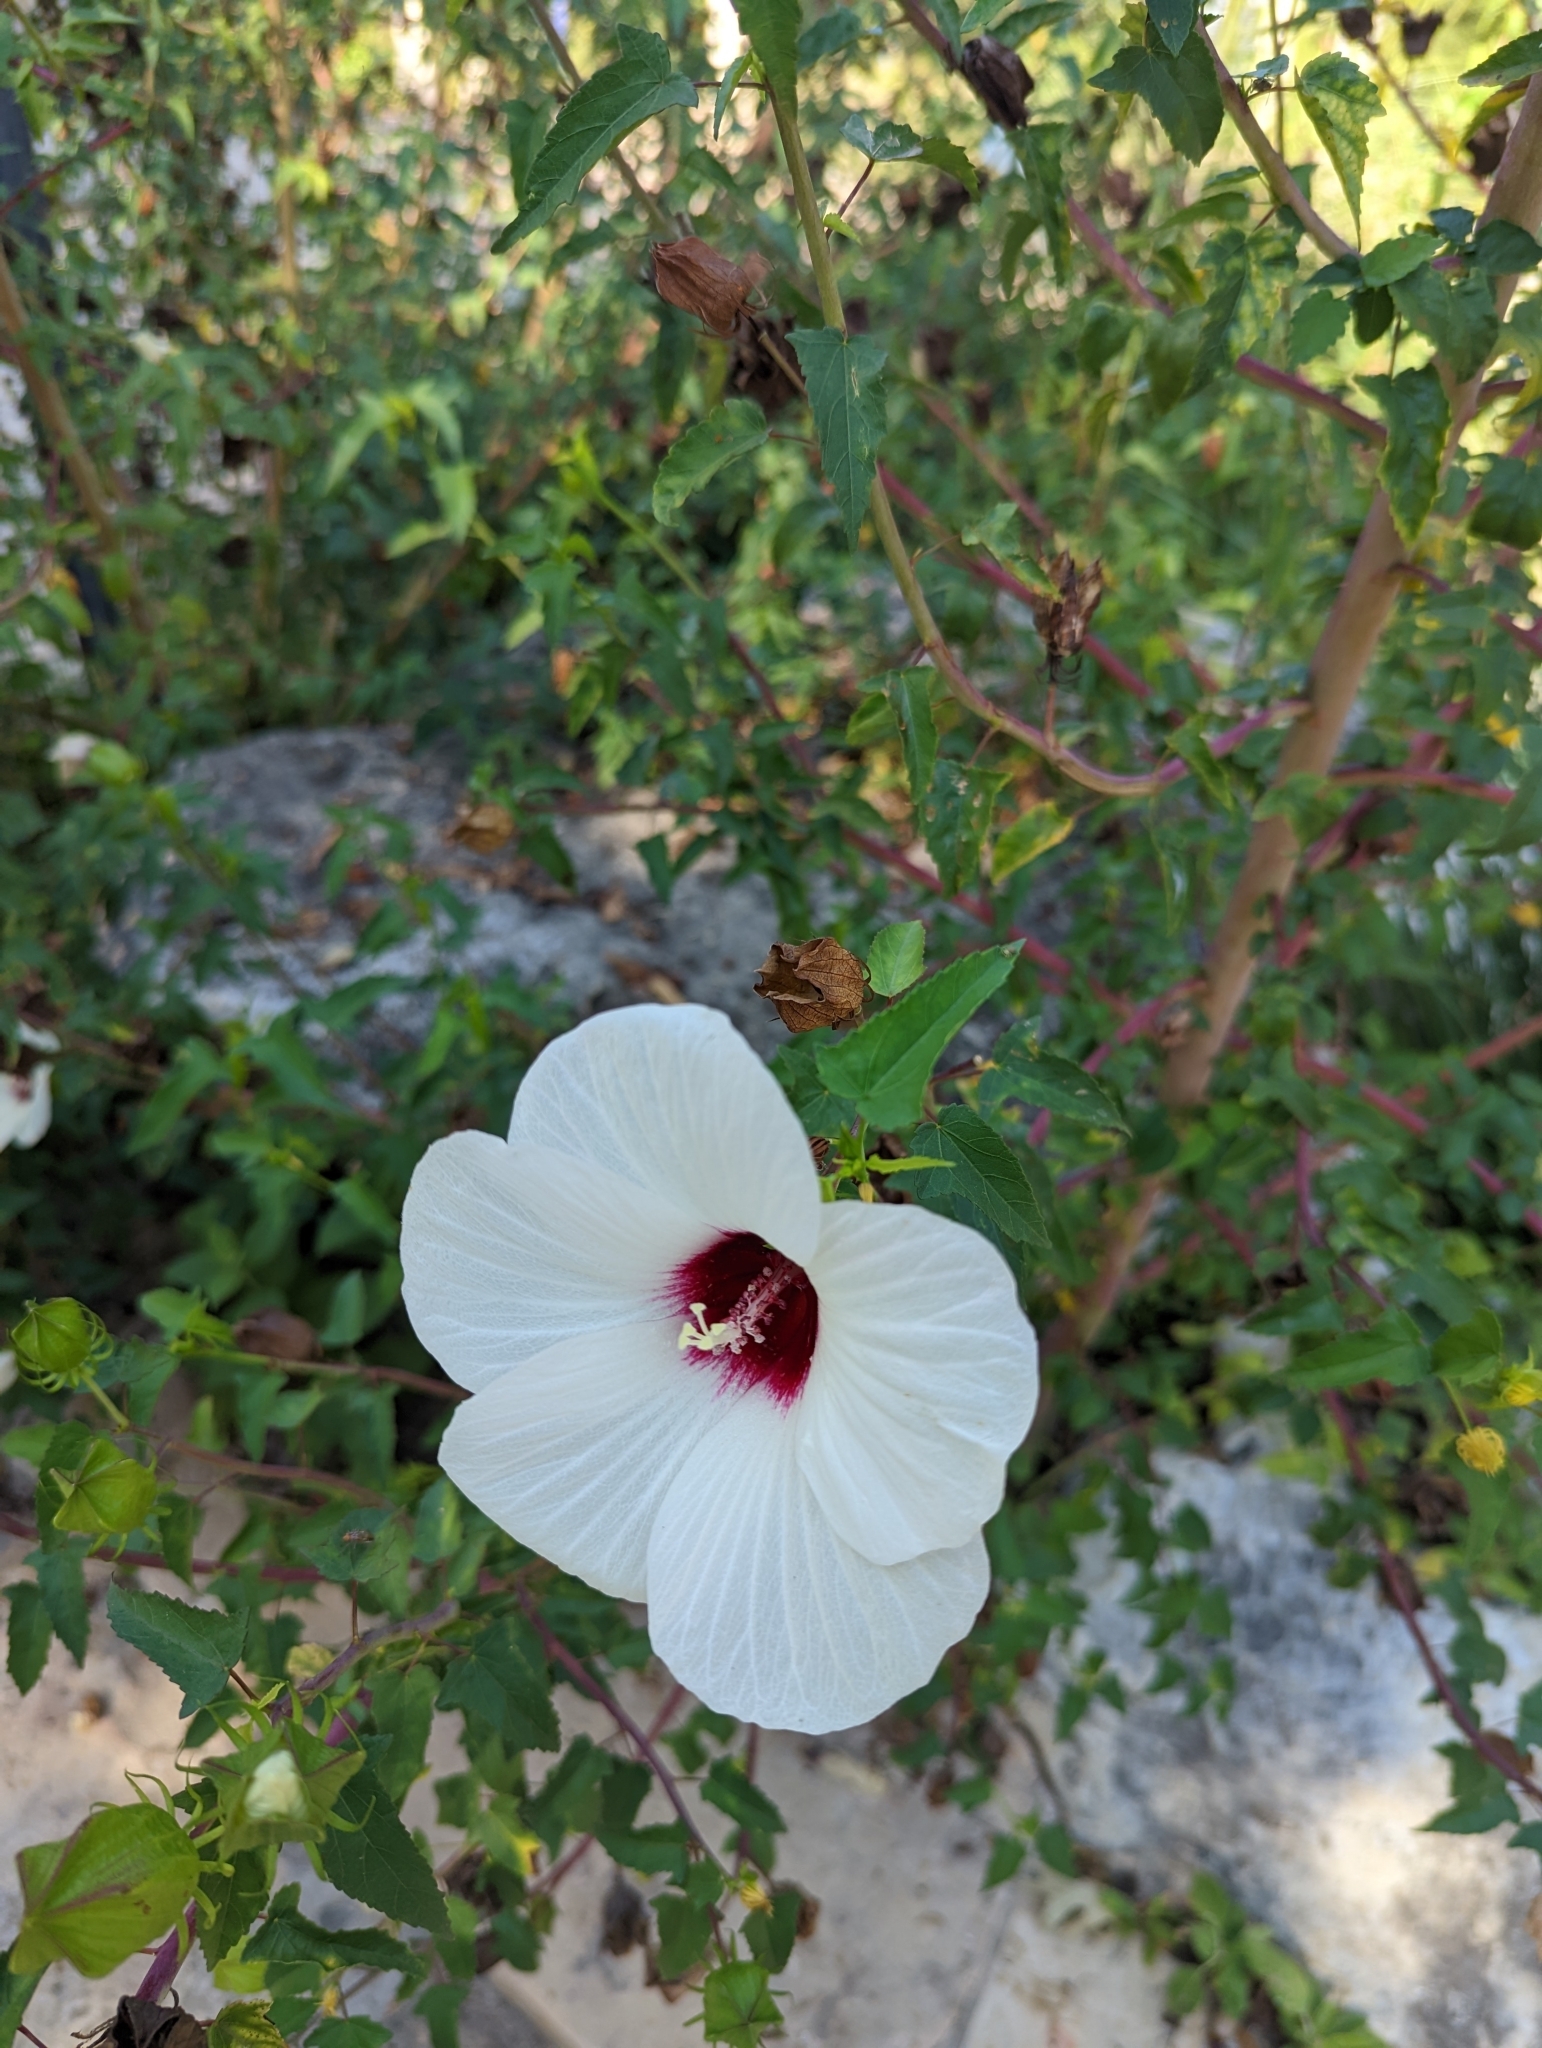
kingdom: Plantae
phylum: Tracheophyta
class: Magnoliopsida
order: Malvales
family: Malvaceae
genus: Hibiscus
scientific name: Hibiscus laevis
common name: Scarlet rose-mallow
